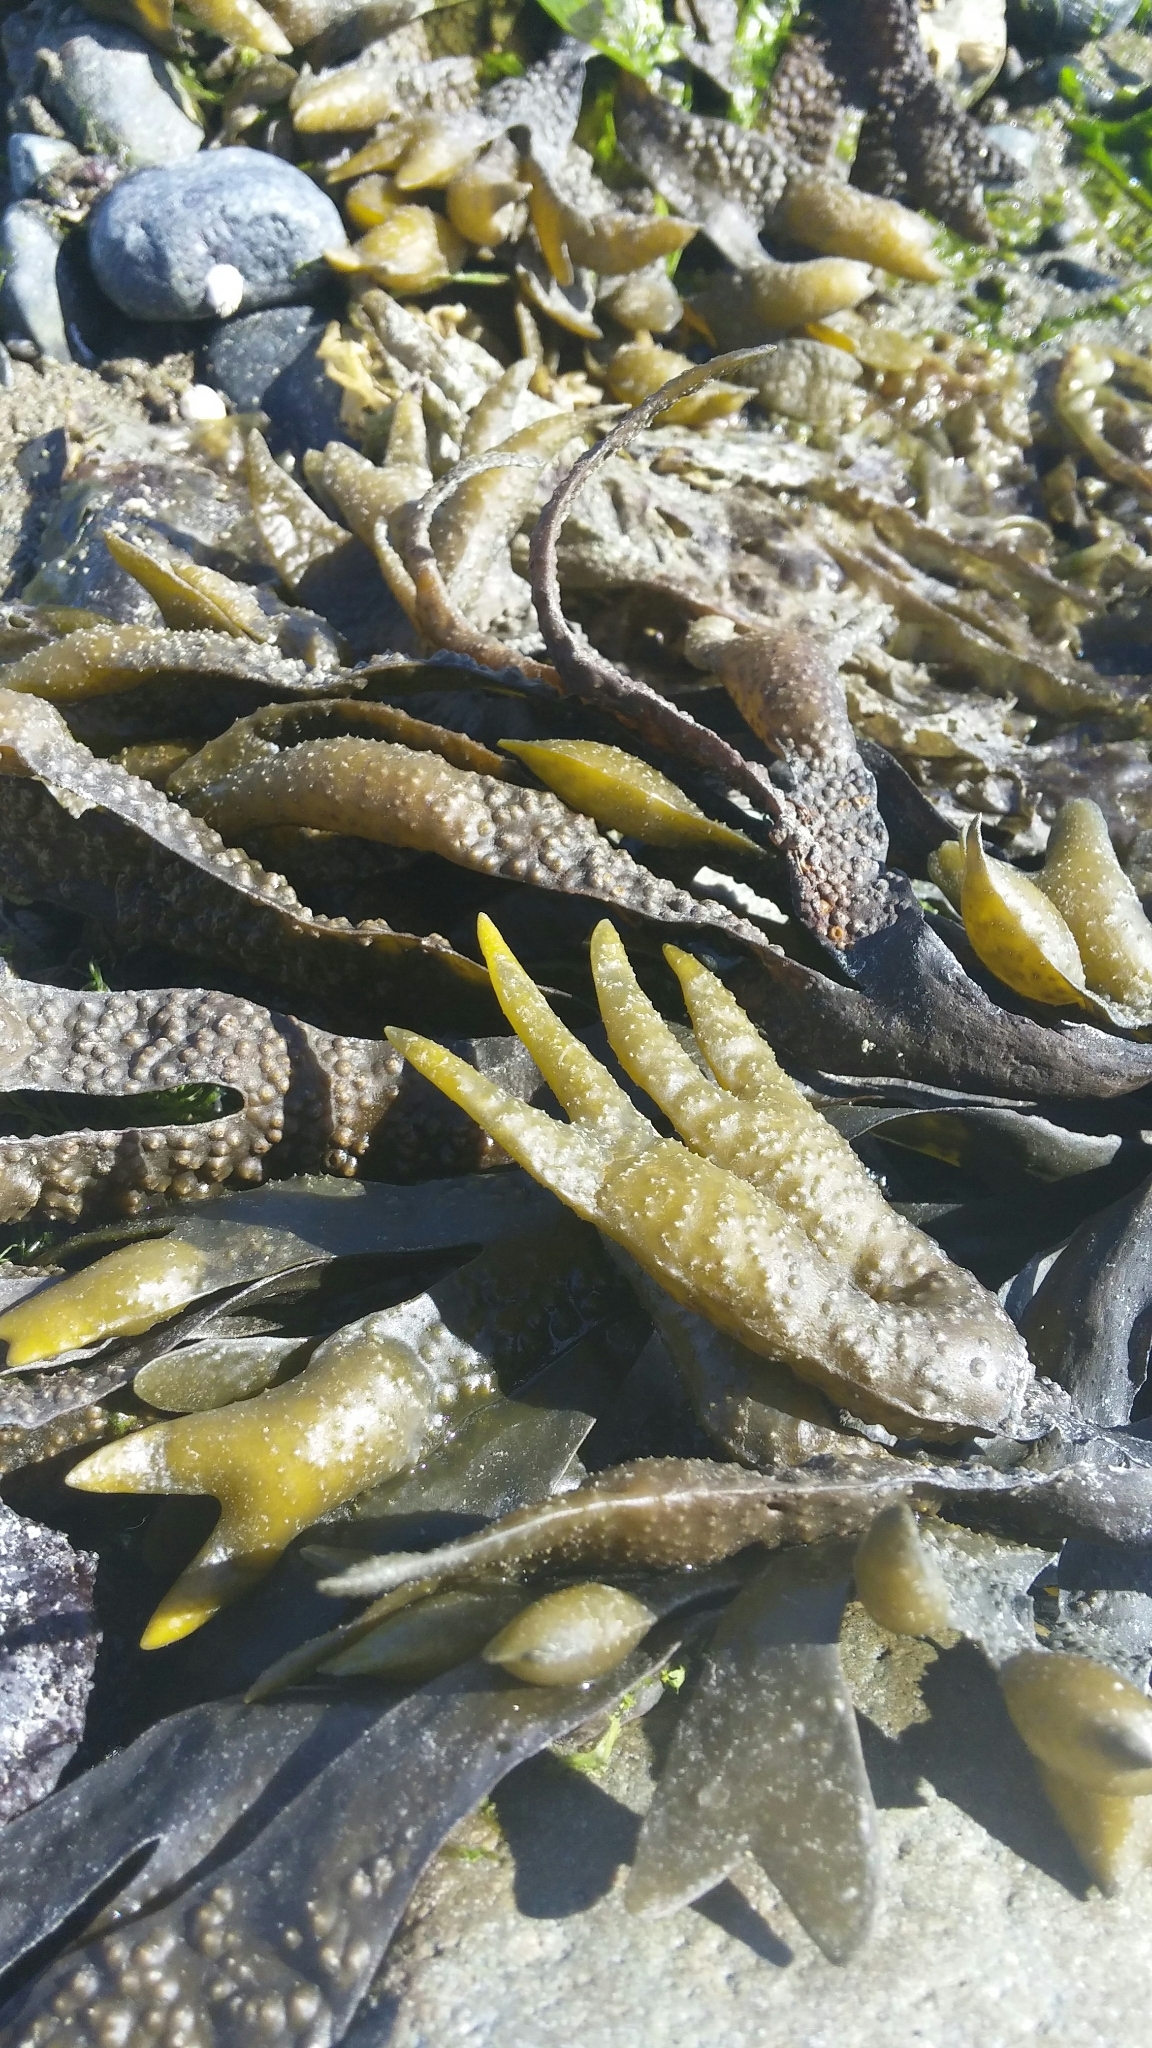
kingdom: Chromista
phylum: Ochrophyta
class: Phaeophyceae
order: Fucales
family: Fucaceae
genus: Fucus
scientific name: Fucus distichus
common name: Rockweed
